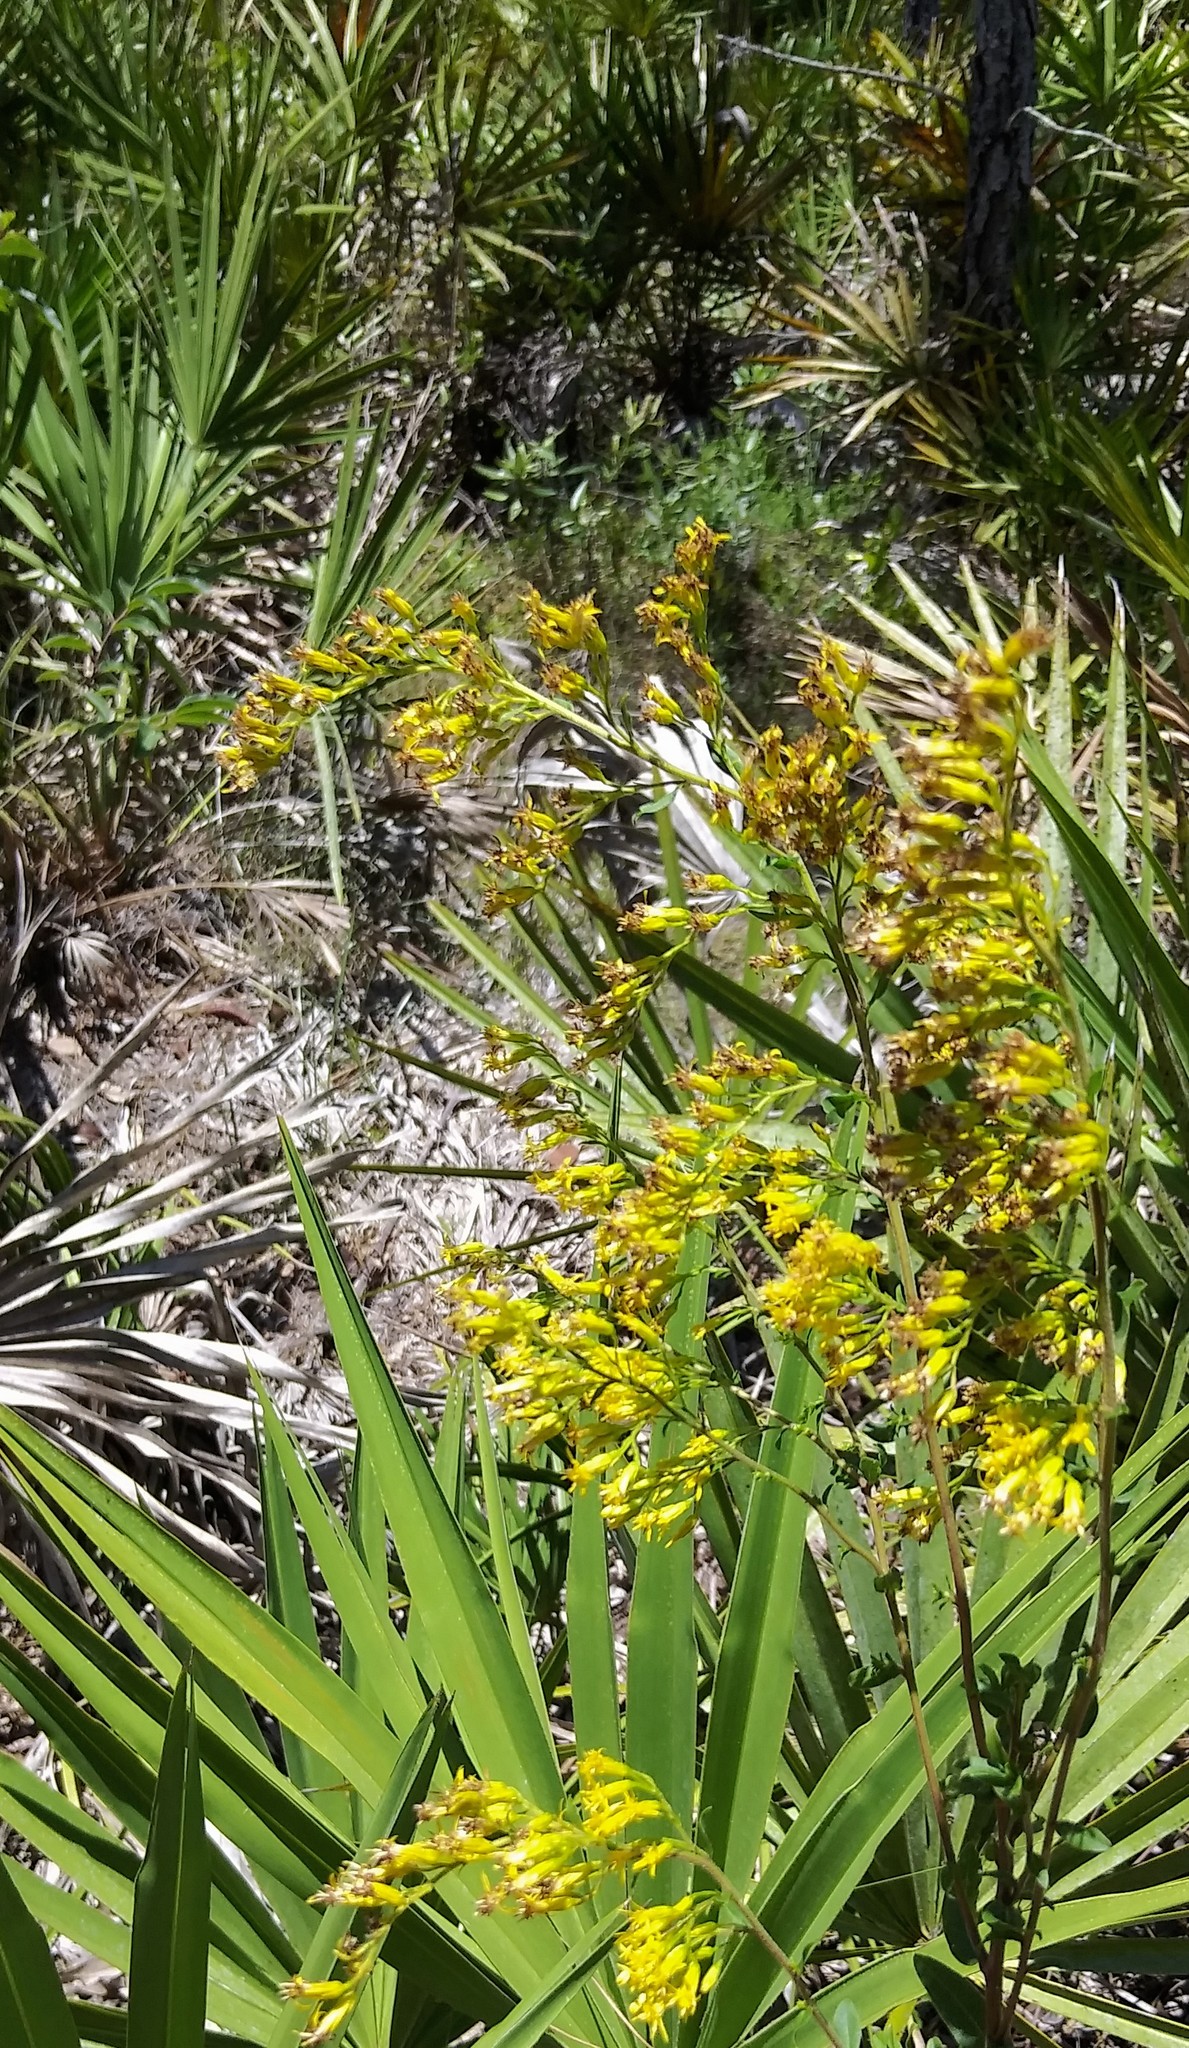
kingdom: Plantae
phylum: Tracheophyta
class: Magnoliopsida
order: Asterales
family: Asteraceae
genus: Solidago
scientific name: Solidago chapmanii
